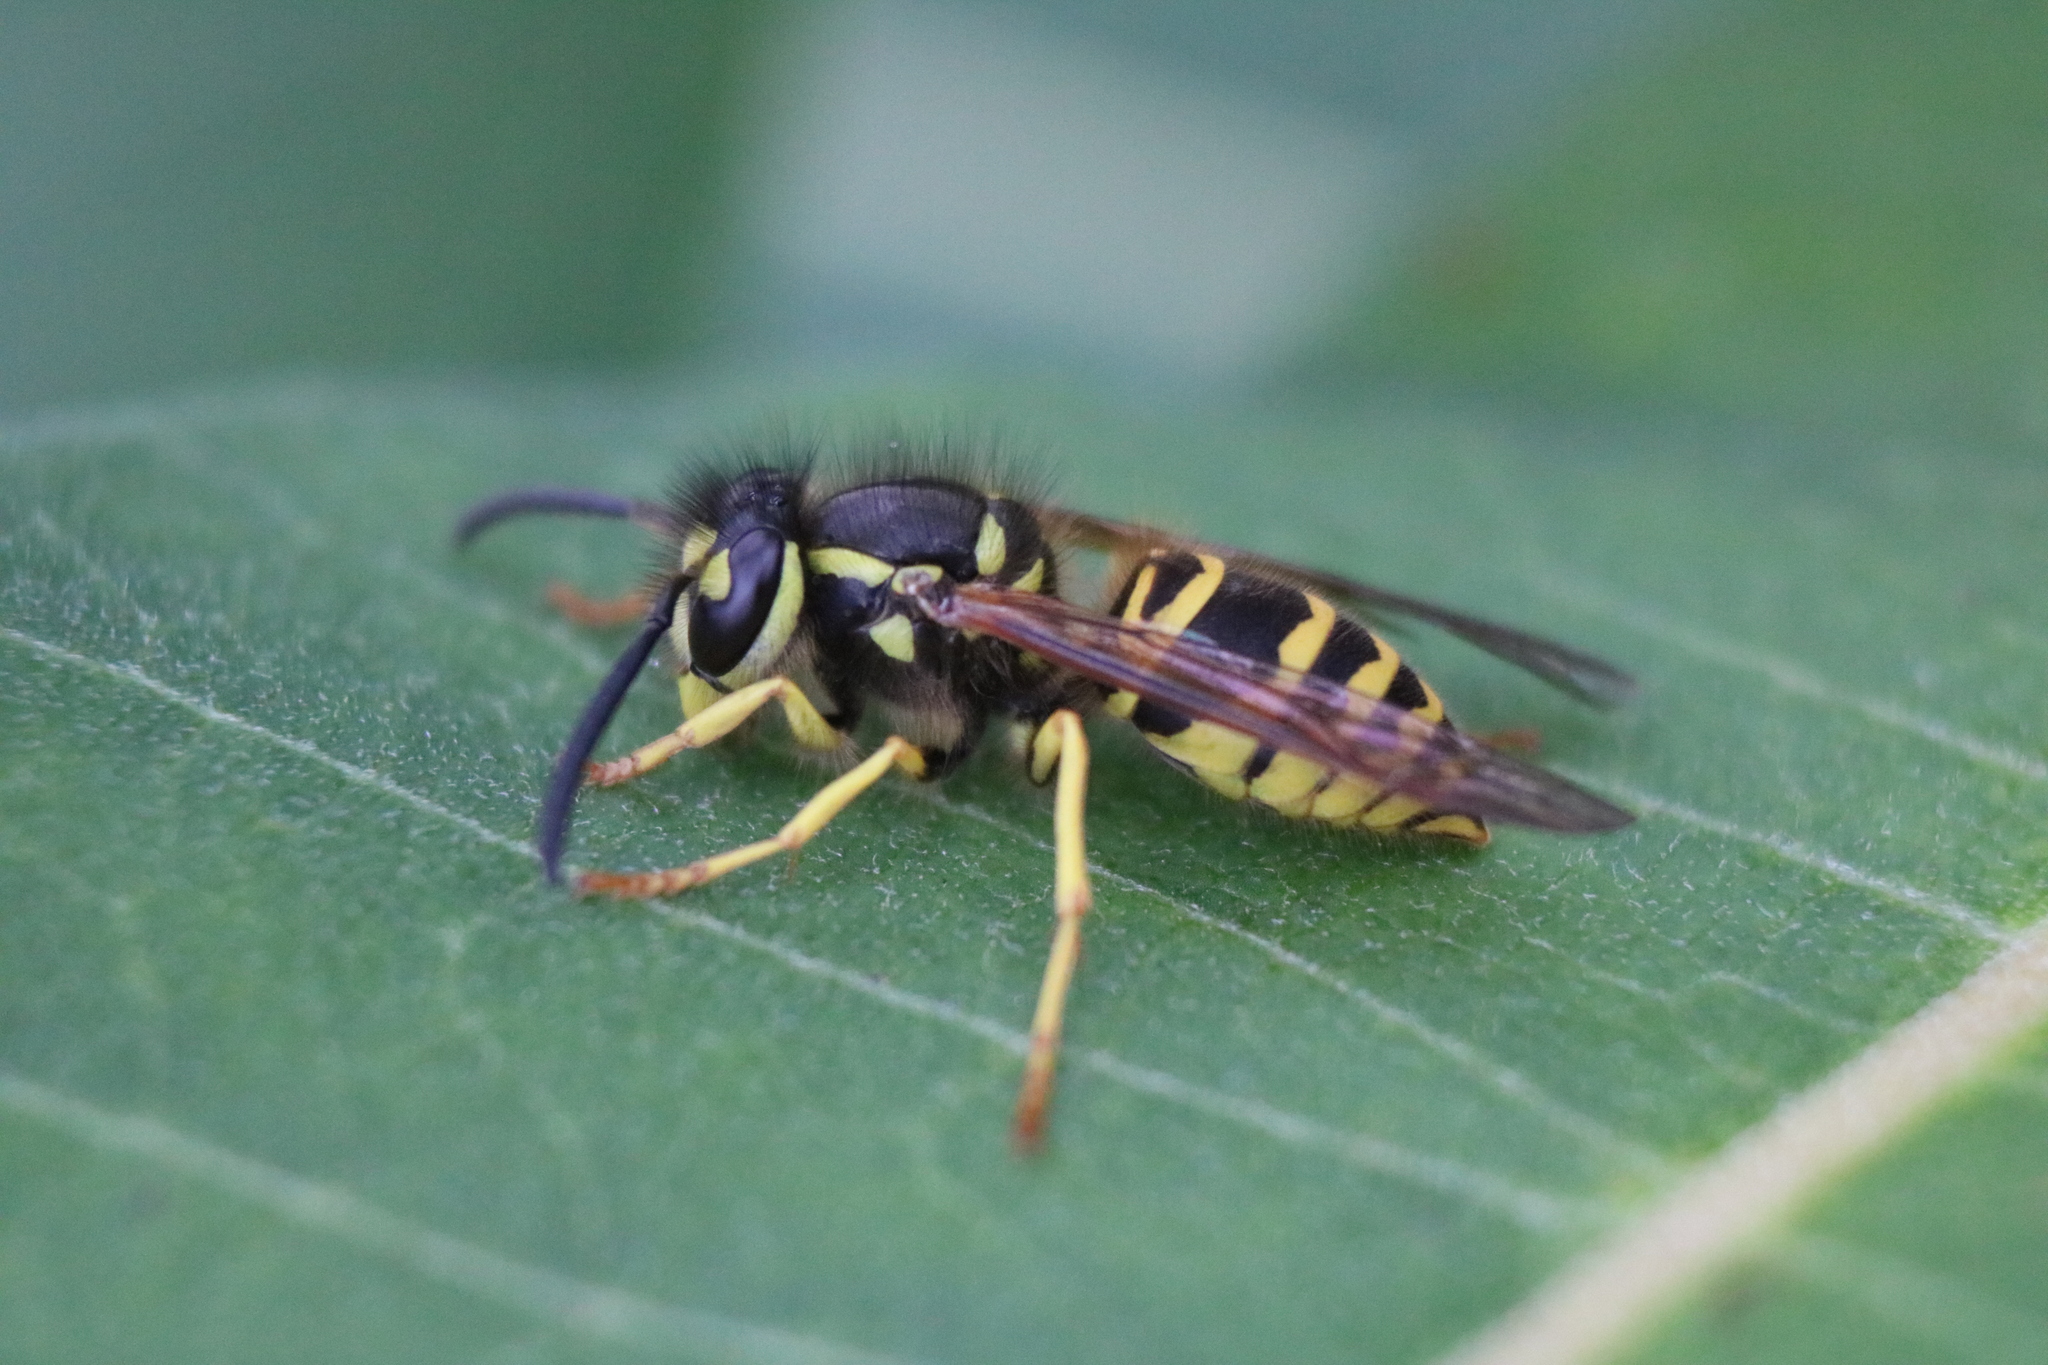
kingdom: Animalia
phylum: Arthropoda
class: Insecta
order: Hymenoptera
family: Vespidae
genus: Vespula
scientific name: Vespula maculifrons
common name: Eastern yellowjacket
